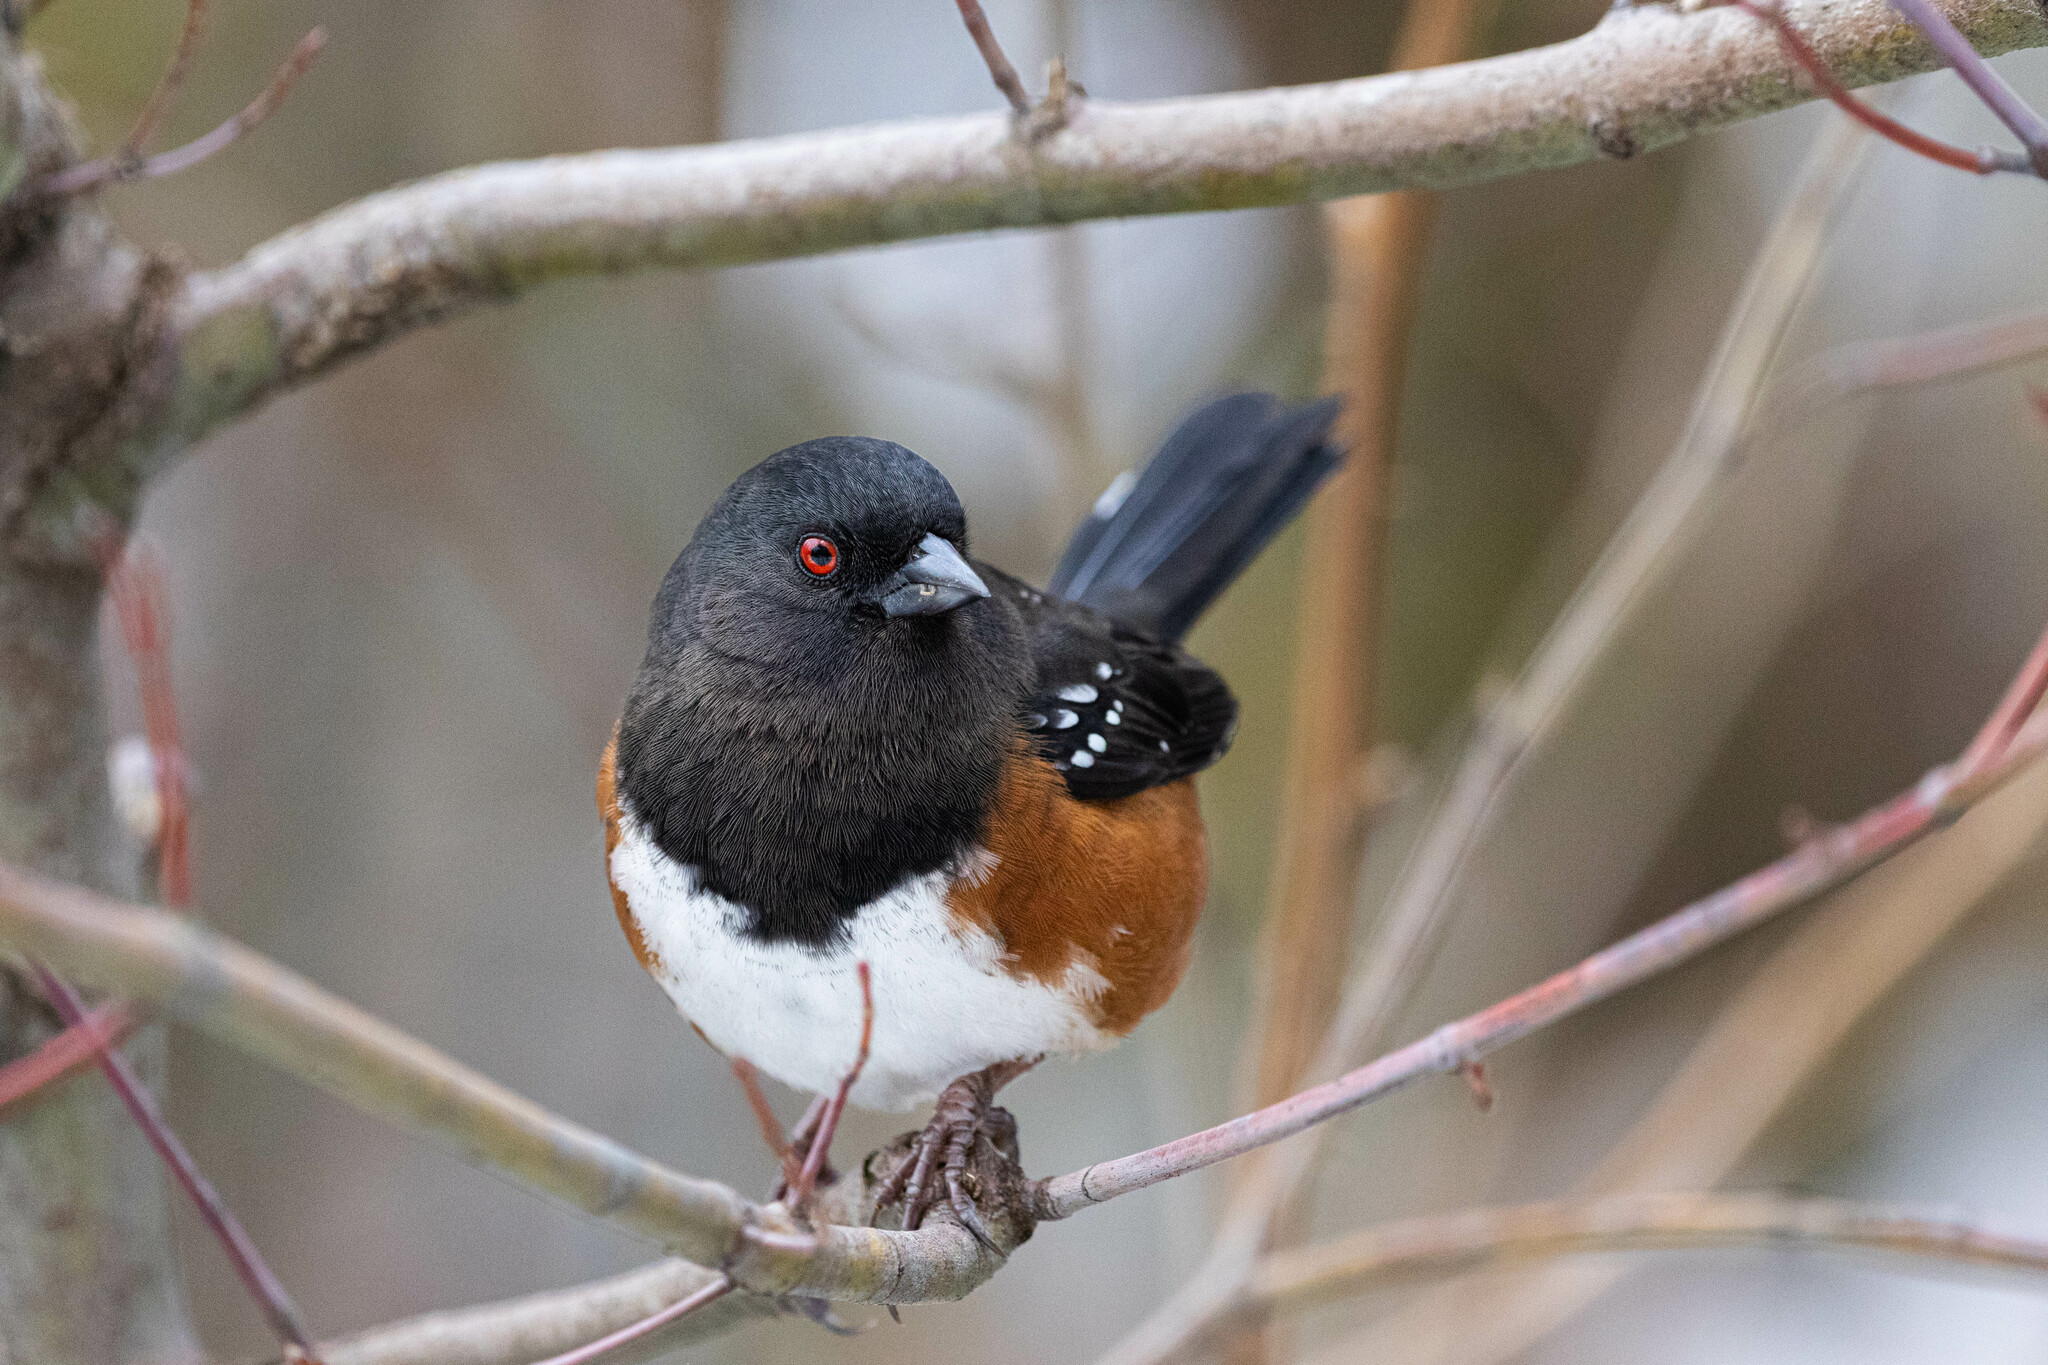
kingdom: Animalia
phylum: Chordata
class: Aves
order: Passeriformes
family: Passerellidae
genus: Pipilo
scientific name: Pipilo maculatus
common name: Spotted towhee
